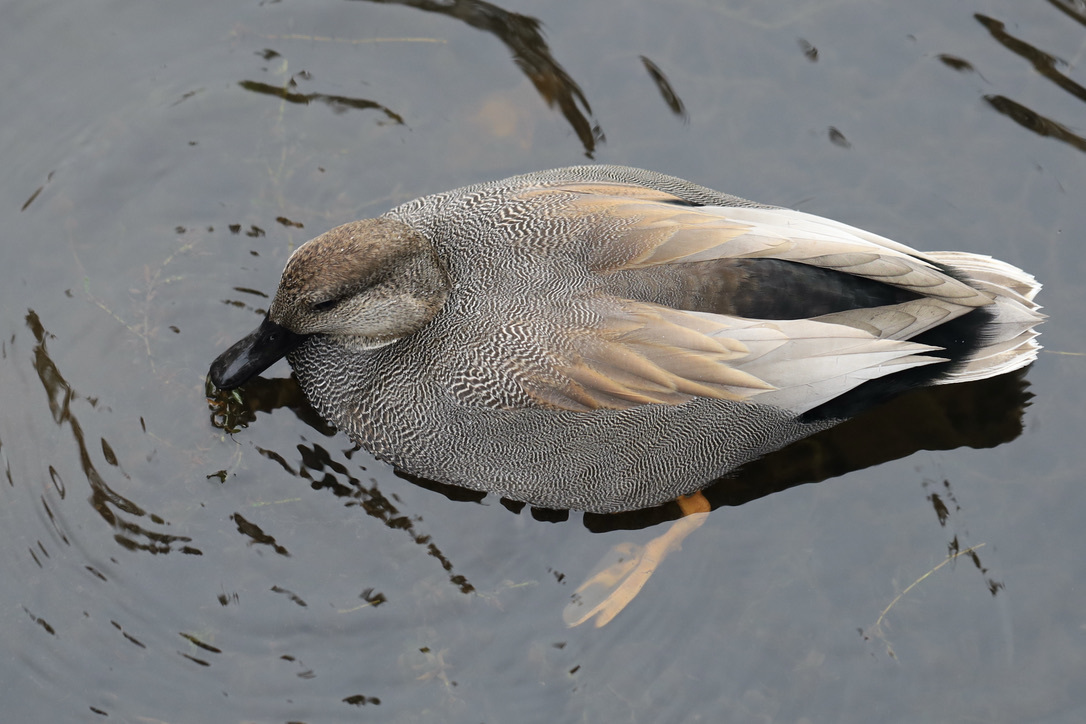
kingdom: Animalia
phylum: Chordata
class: Aves
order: Anseriformes
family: Anatidae
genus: Mareca
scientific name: Mareca strepera
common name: Gadwall
